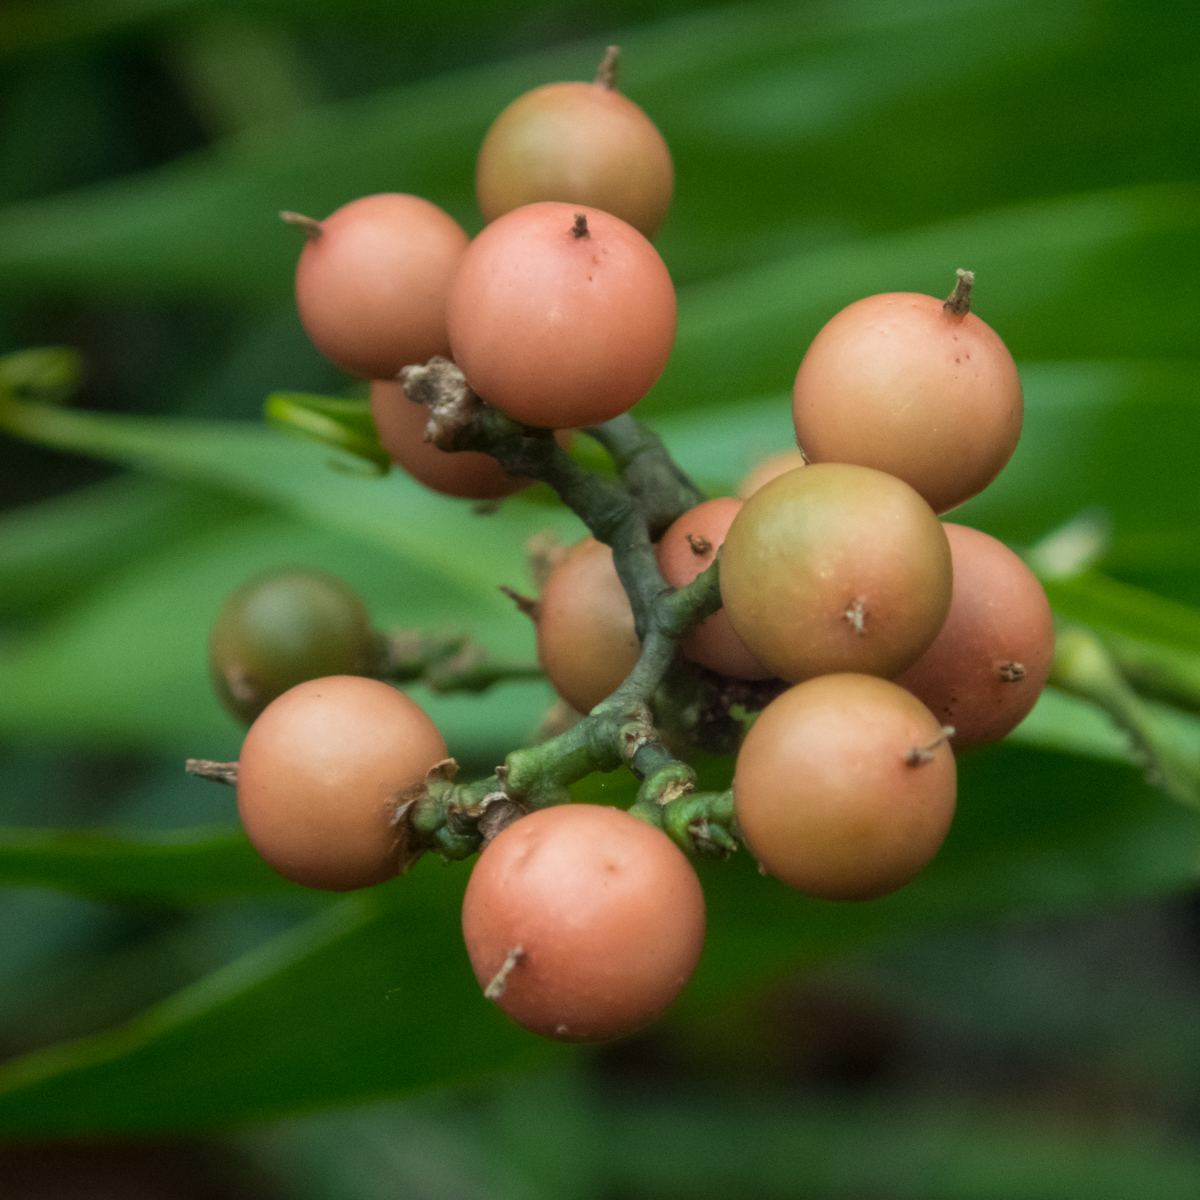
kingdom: Plantae
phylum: Tracheophyta
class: Liliopsida
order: Poales
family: Flagellariaceae
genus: Flagellaria
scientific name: Flagellaria indica
